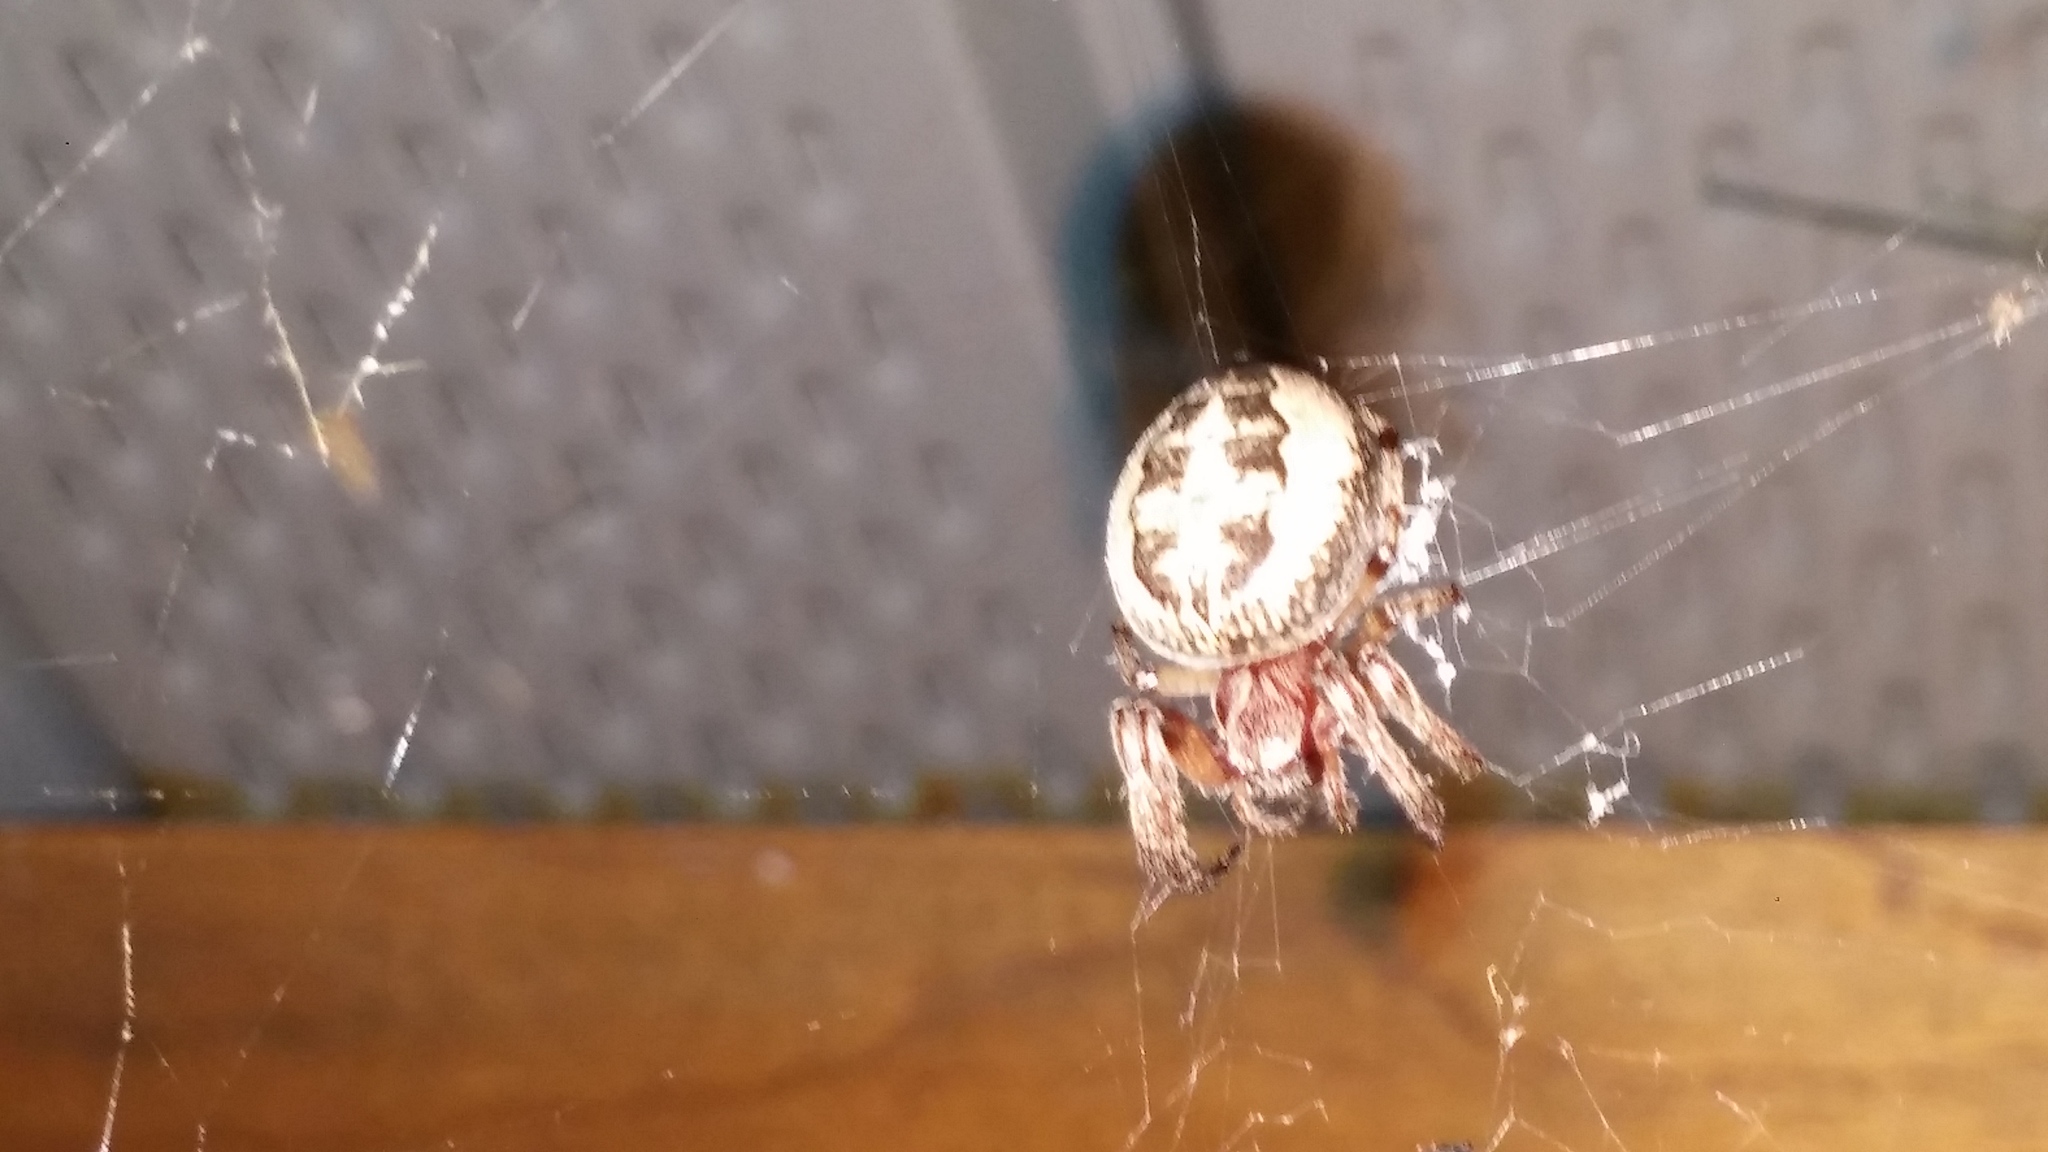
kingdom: Animalia
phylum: Arthropoda
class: Arachnida
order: Araneae
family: Araneidae
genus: Larinioides
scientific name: Larinioides cornutus
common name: Furrow orbweaver
